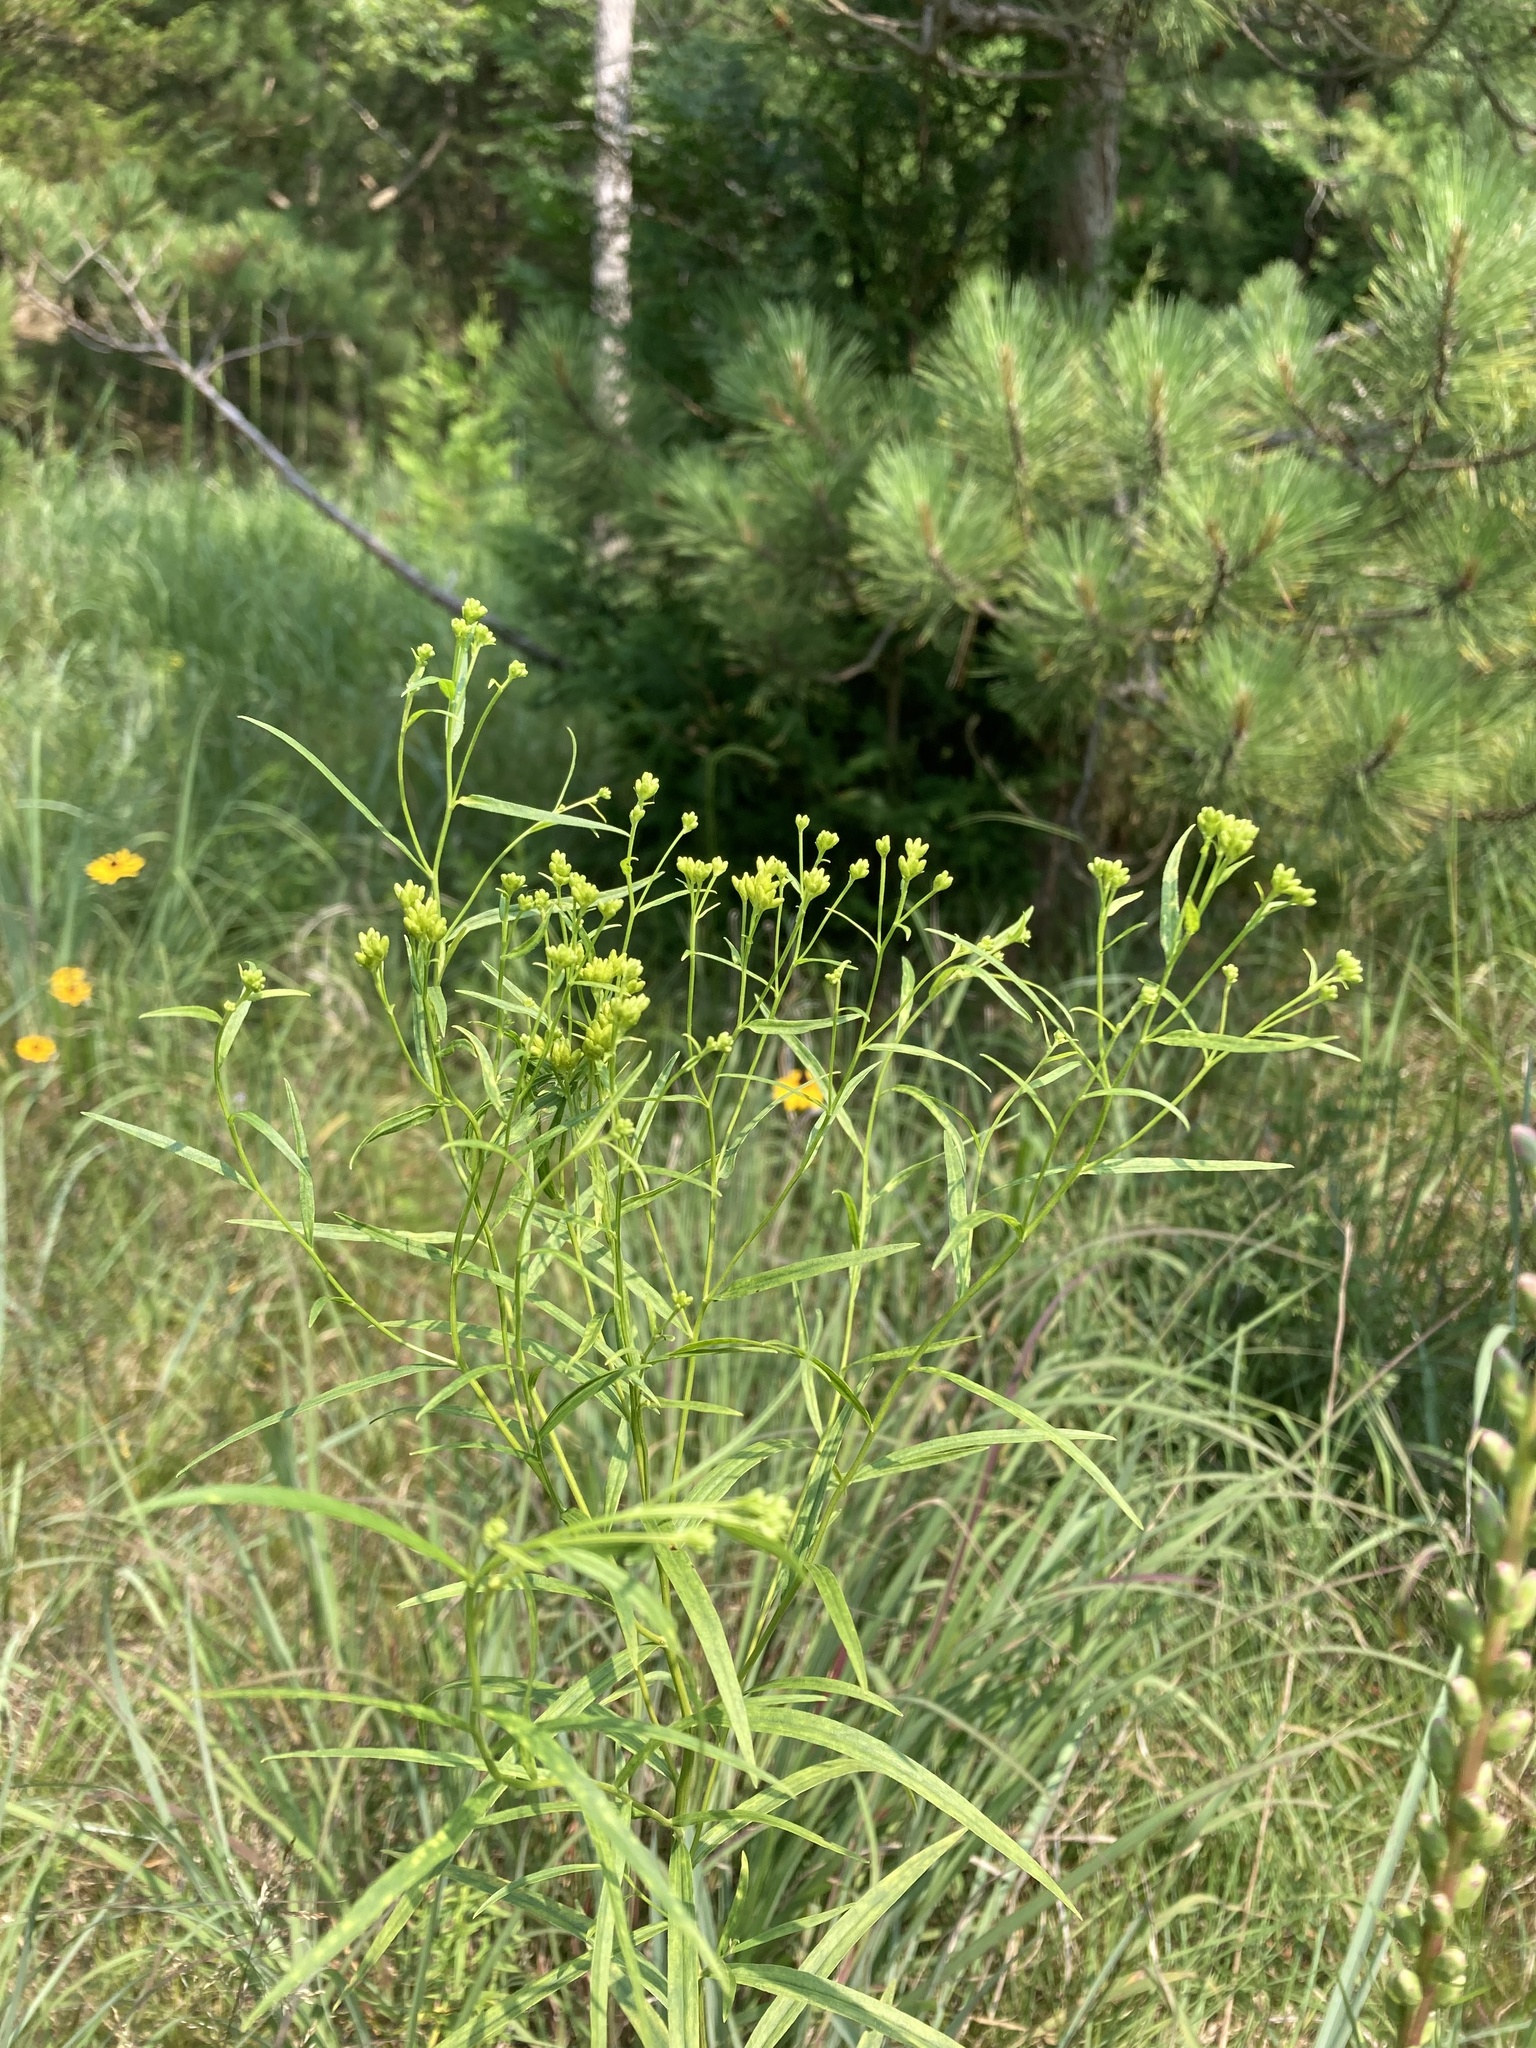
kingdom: Plantae
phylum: Tracheophyta
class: Magnoliopsida
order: Asterales
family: Asteraceae
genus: Euthamia
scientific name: Euthamia graminifolia
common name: Common goldentop
